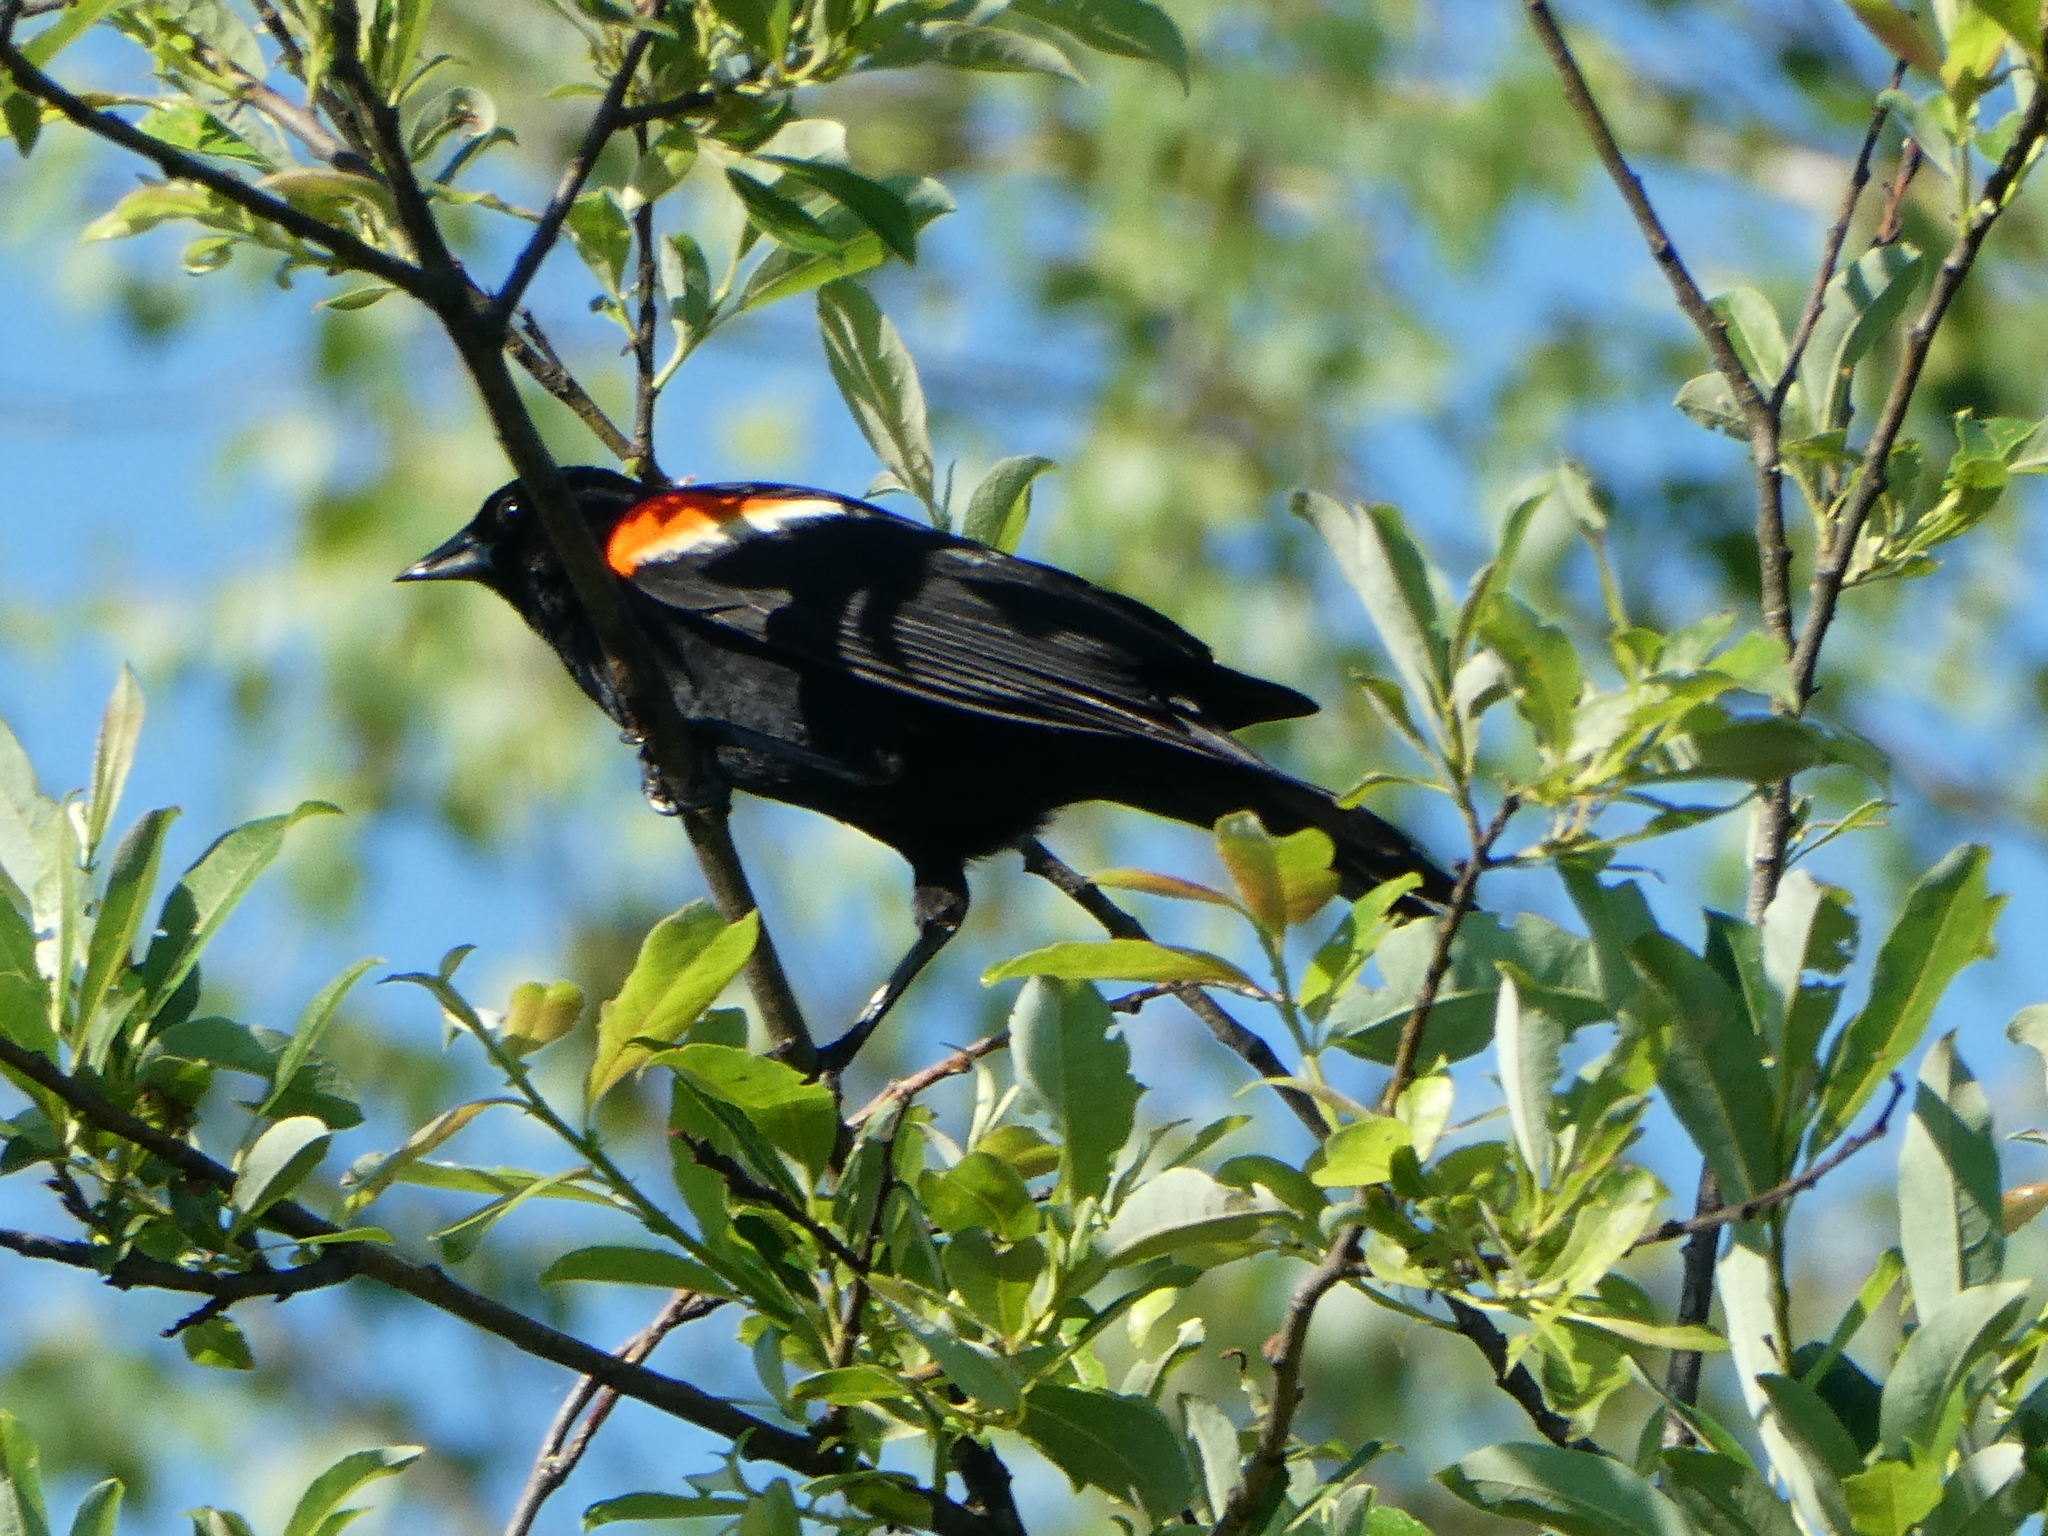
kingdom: Animalia
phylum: Chordata
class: Aves
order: Passeriformes
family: Icteridae
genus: Agelaius
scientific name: Agelaius phoeniceus
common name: Red-winged blackbird
